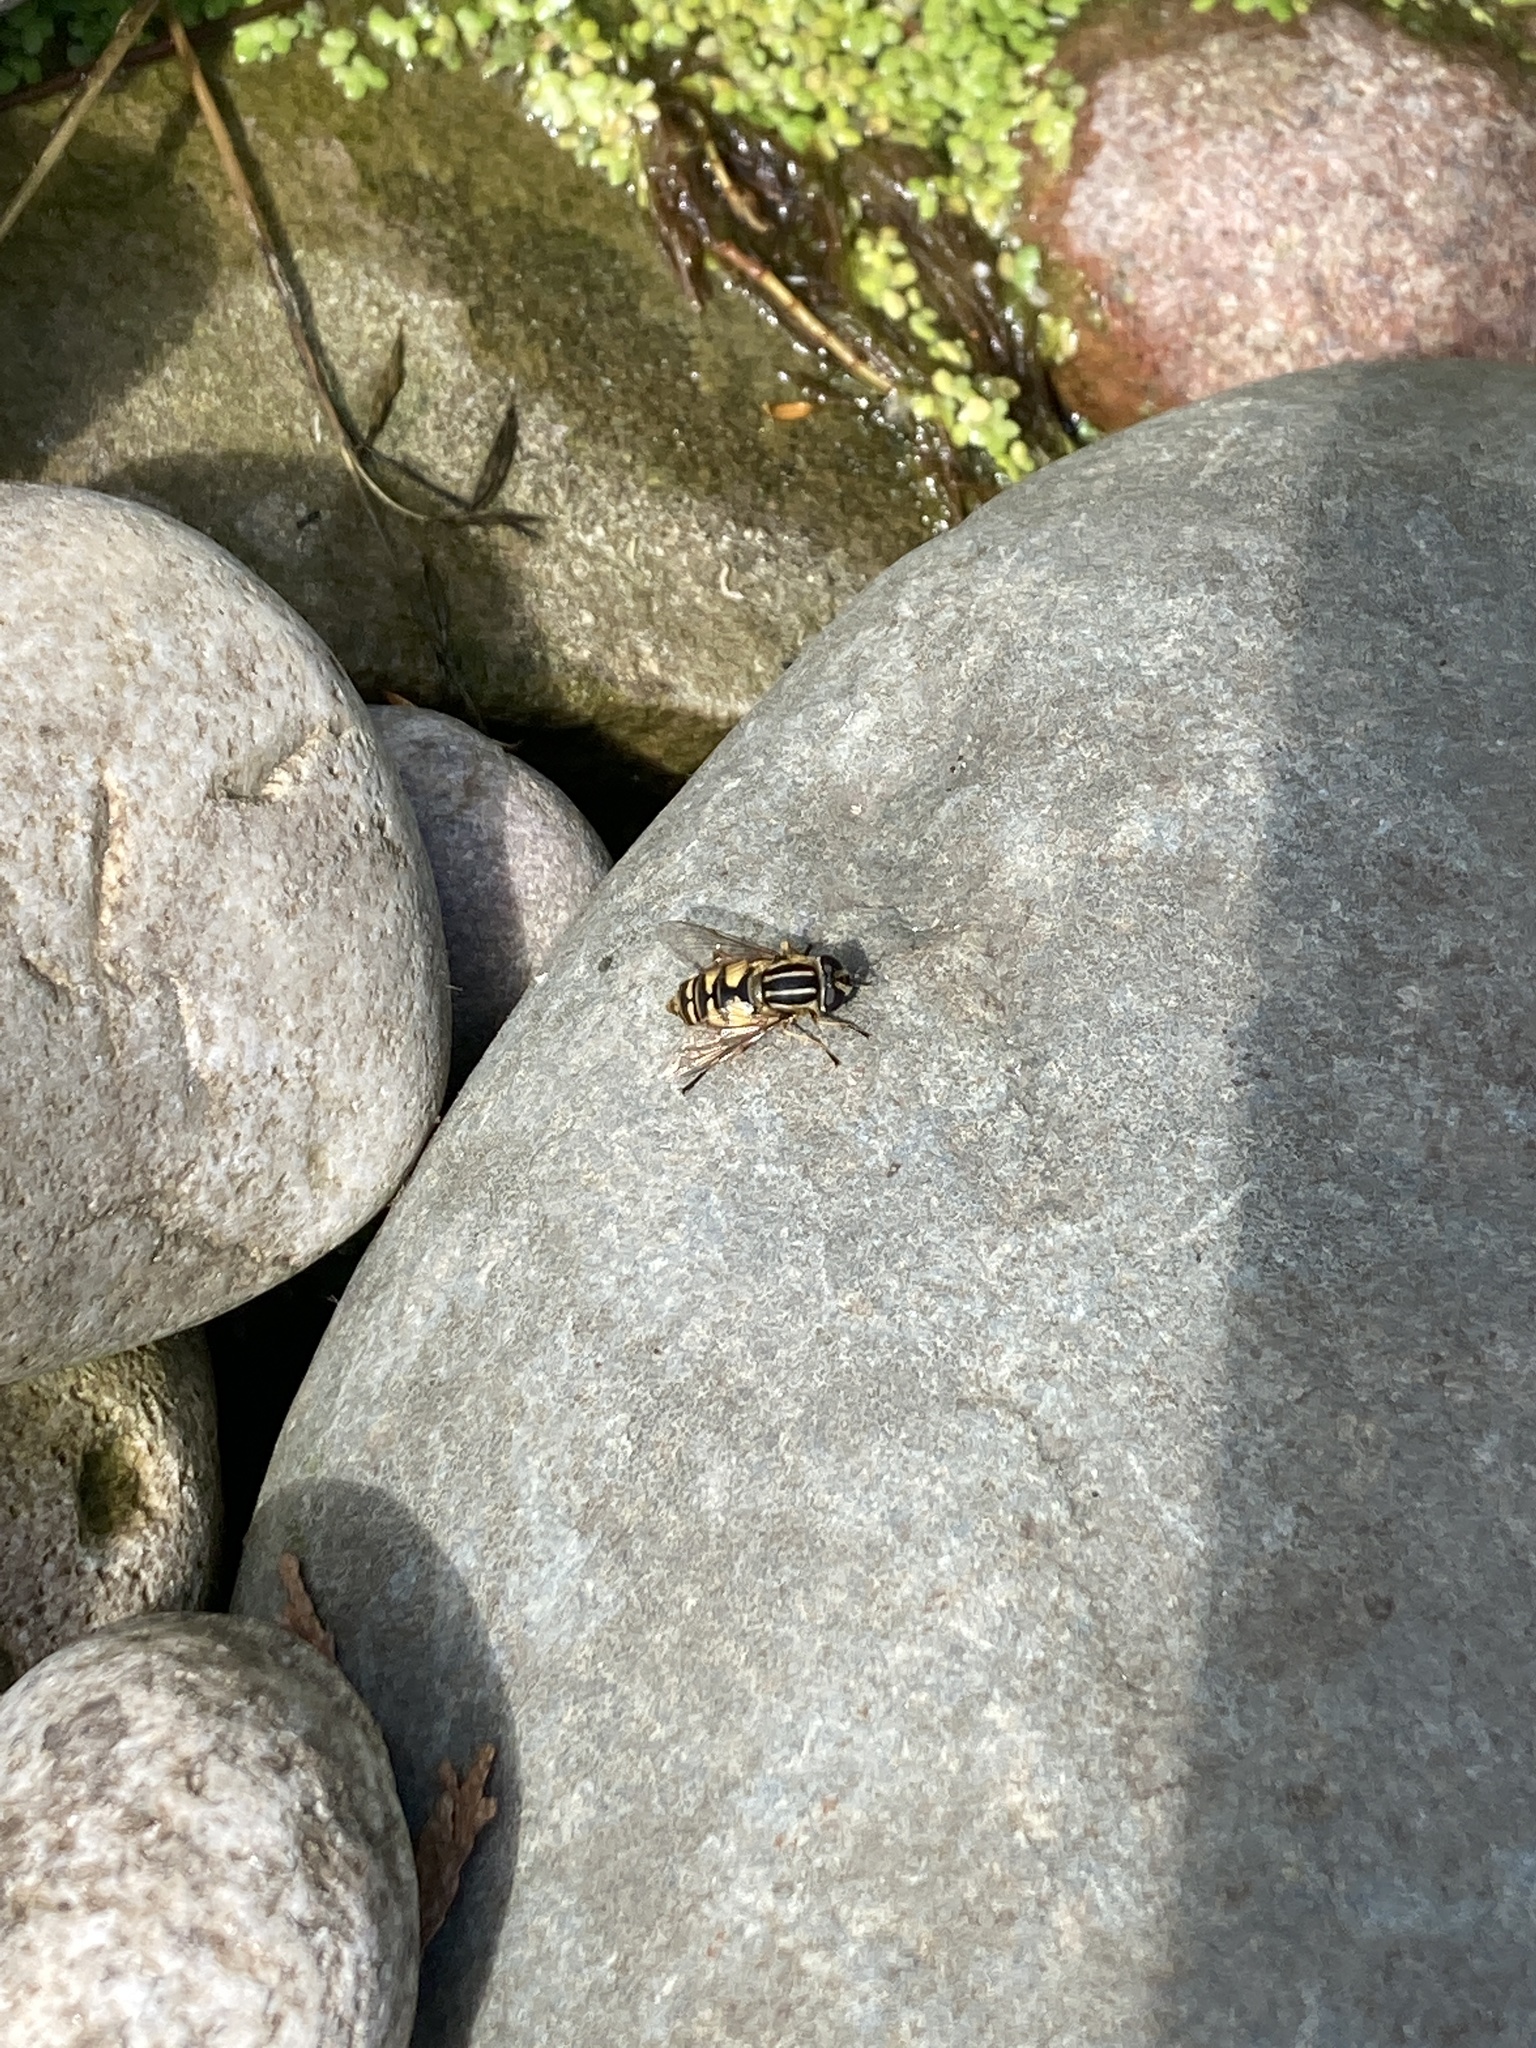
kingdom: Animalia
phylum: Arthropoda
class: Insecta
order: Diptera
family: Syrphidae
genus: Helophilus
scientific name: Helophilus pendulus
